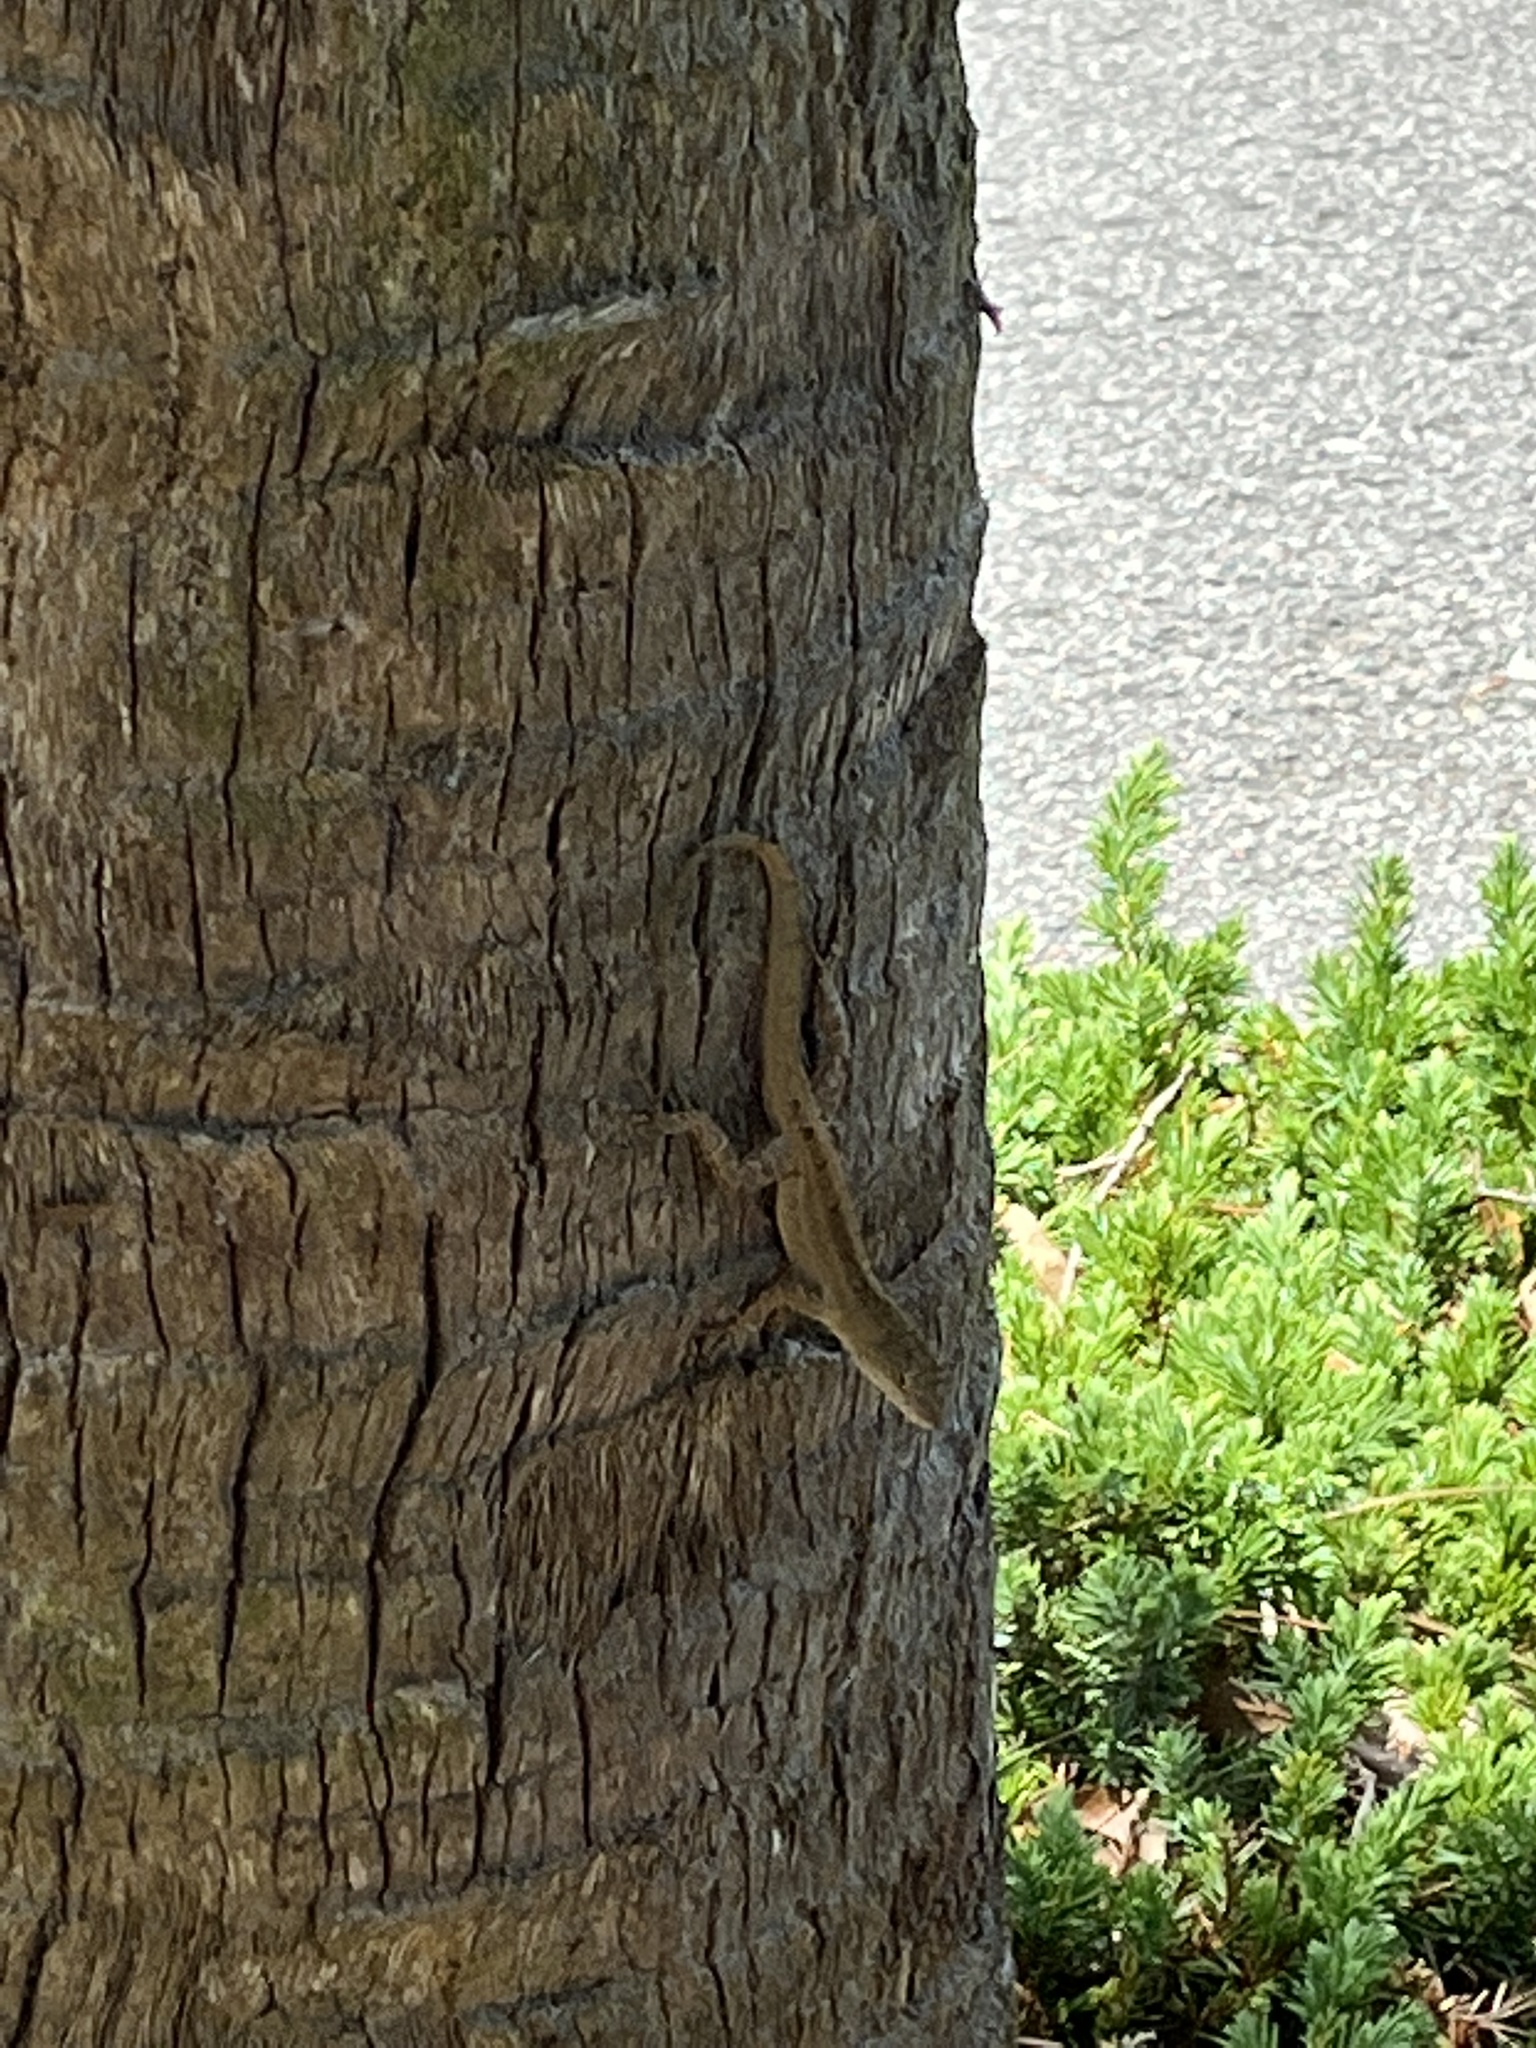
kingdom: Animalia
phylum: Chordata
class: Squamata
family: Dactyloidae
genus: Anolis
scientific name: Anolis sagrei
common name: Brown anole
